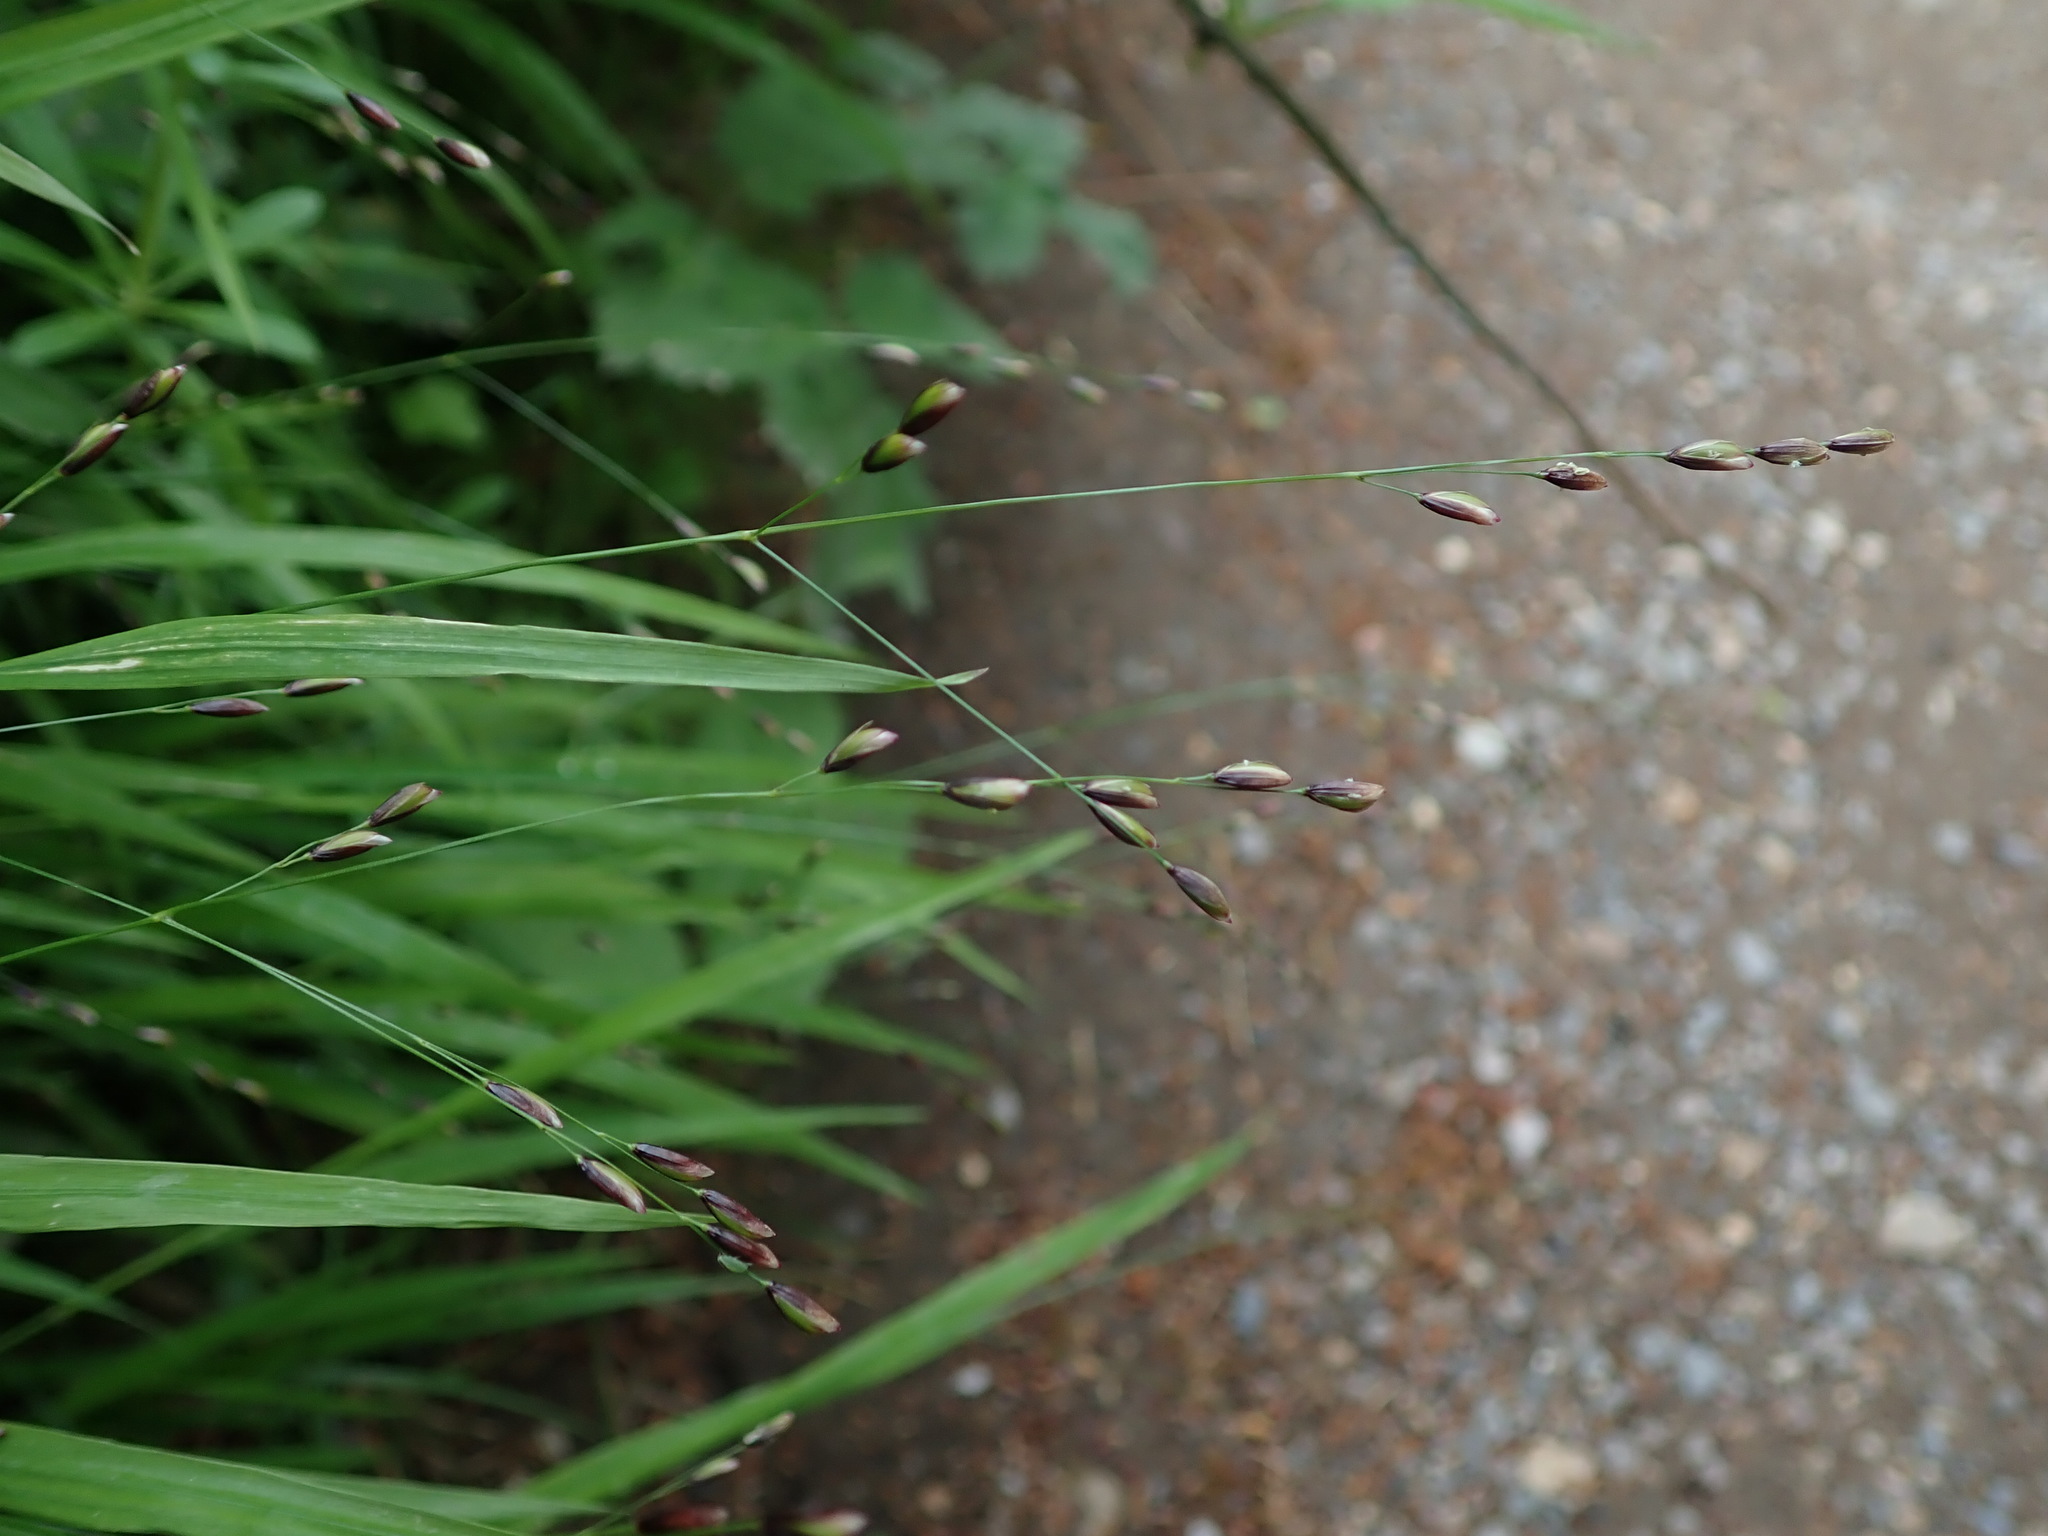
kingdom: Plantae
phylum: Tracheophyta
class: Liliopsida
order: Poales
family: Poaceae
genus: Melica
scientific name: Melica uniflora
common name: Wood melick
